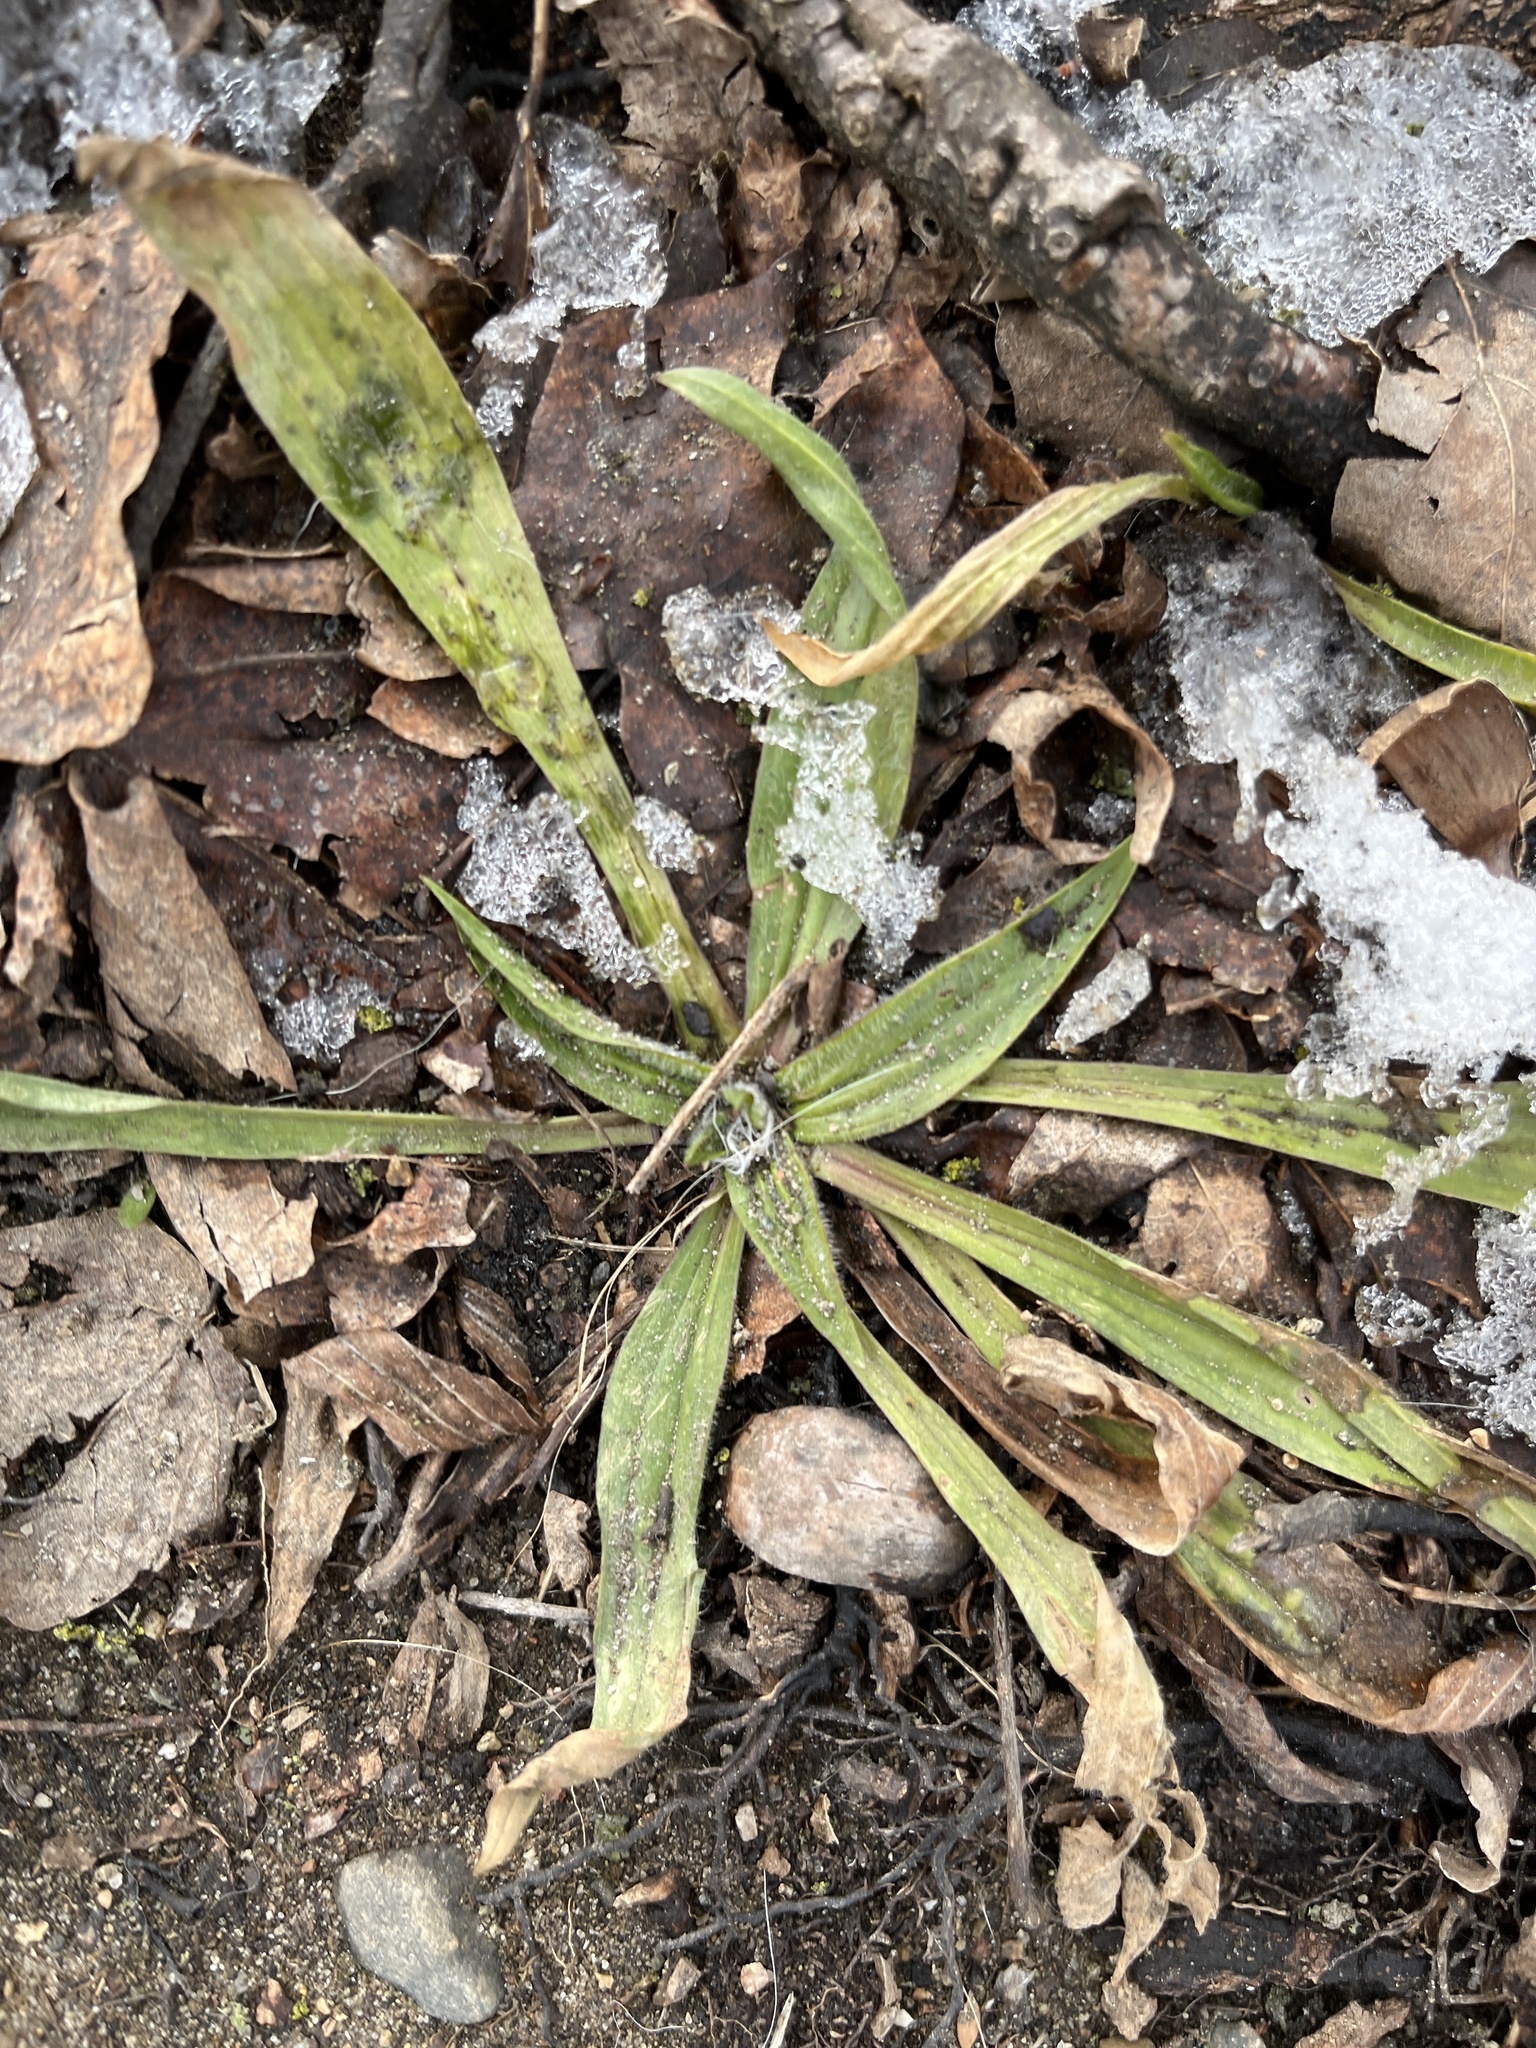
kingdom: Plantae
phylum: Tracheophyta
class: Magnoliopsida
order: Lamiales
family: Plantaginaceae
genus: Plantago
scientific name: Plantago lanceolata
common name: Ribwort plantain
